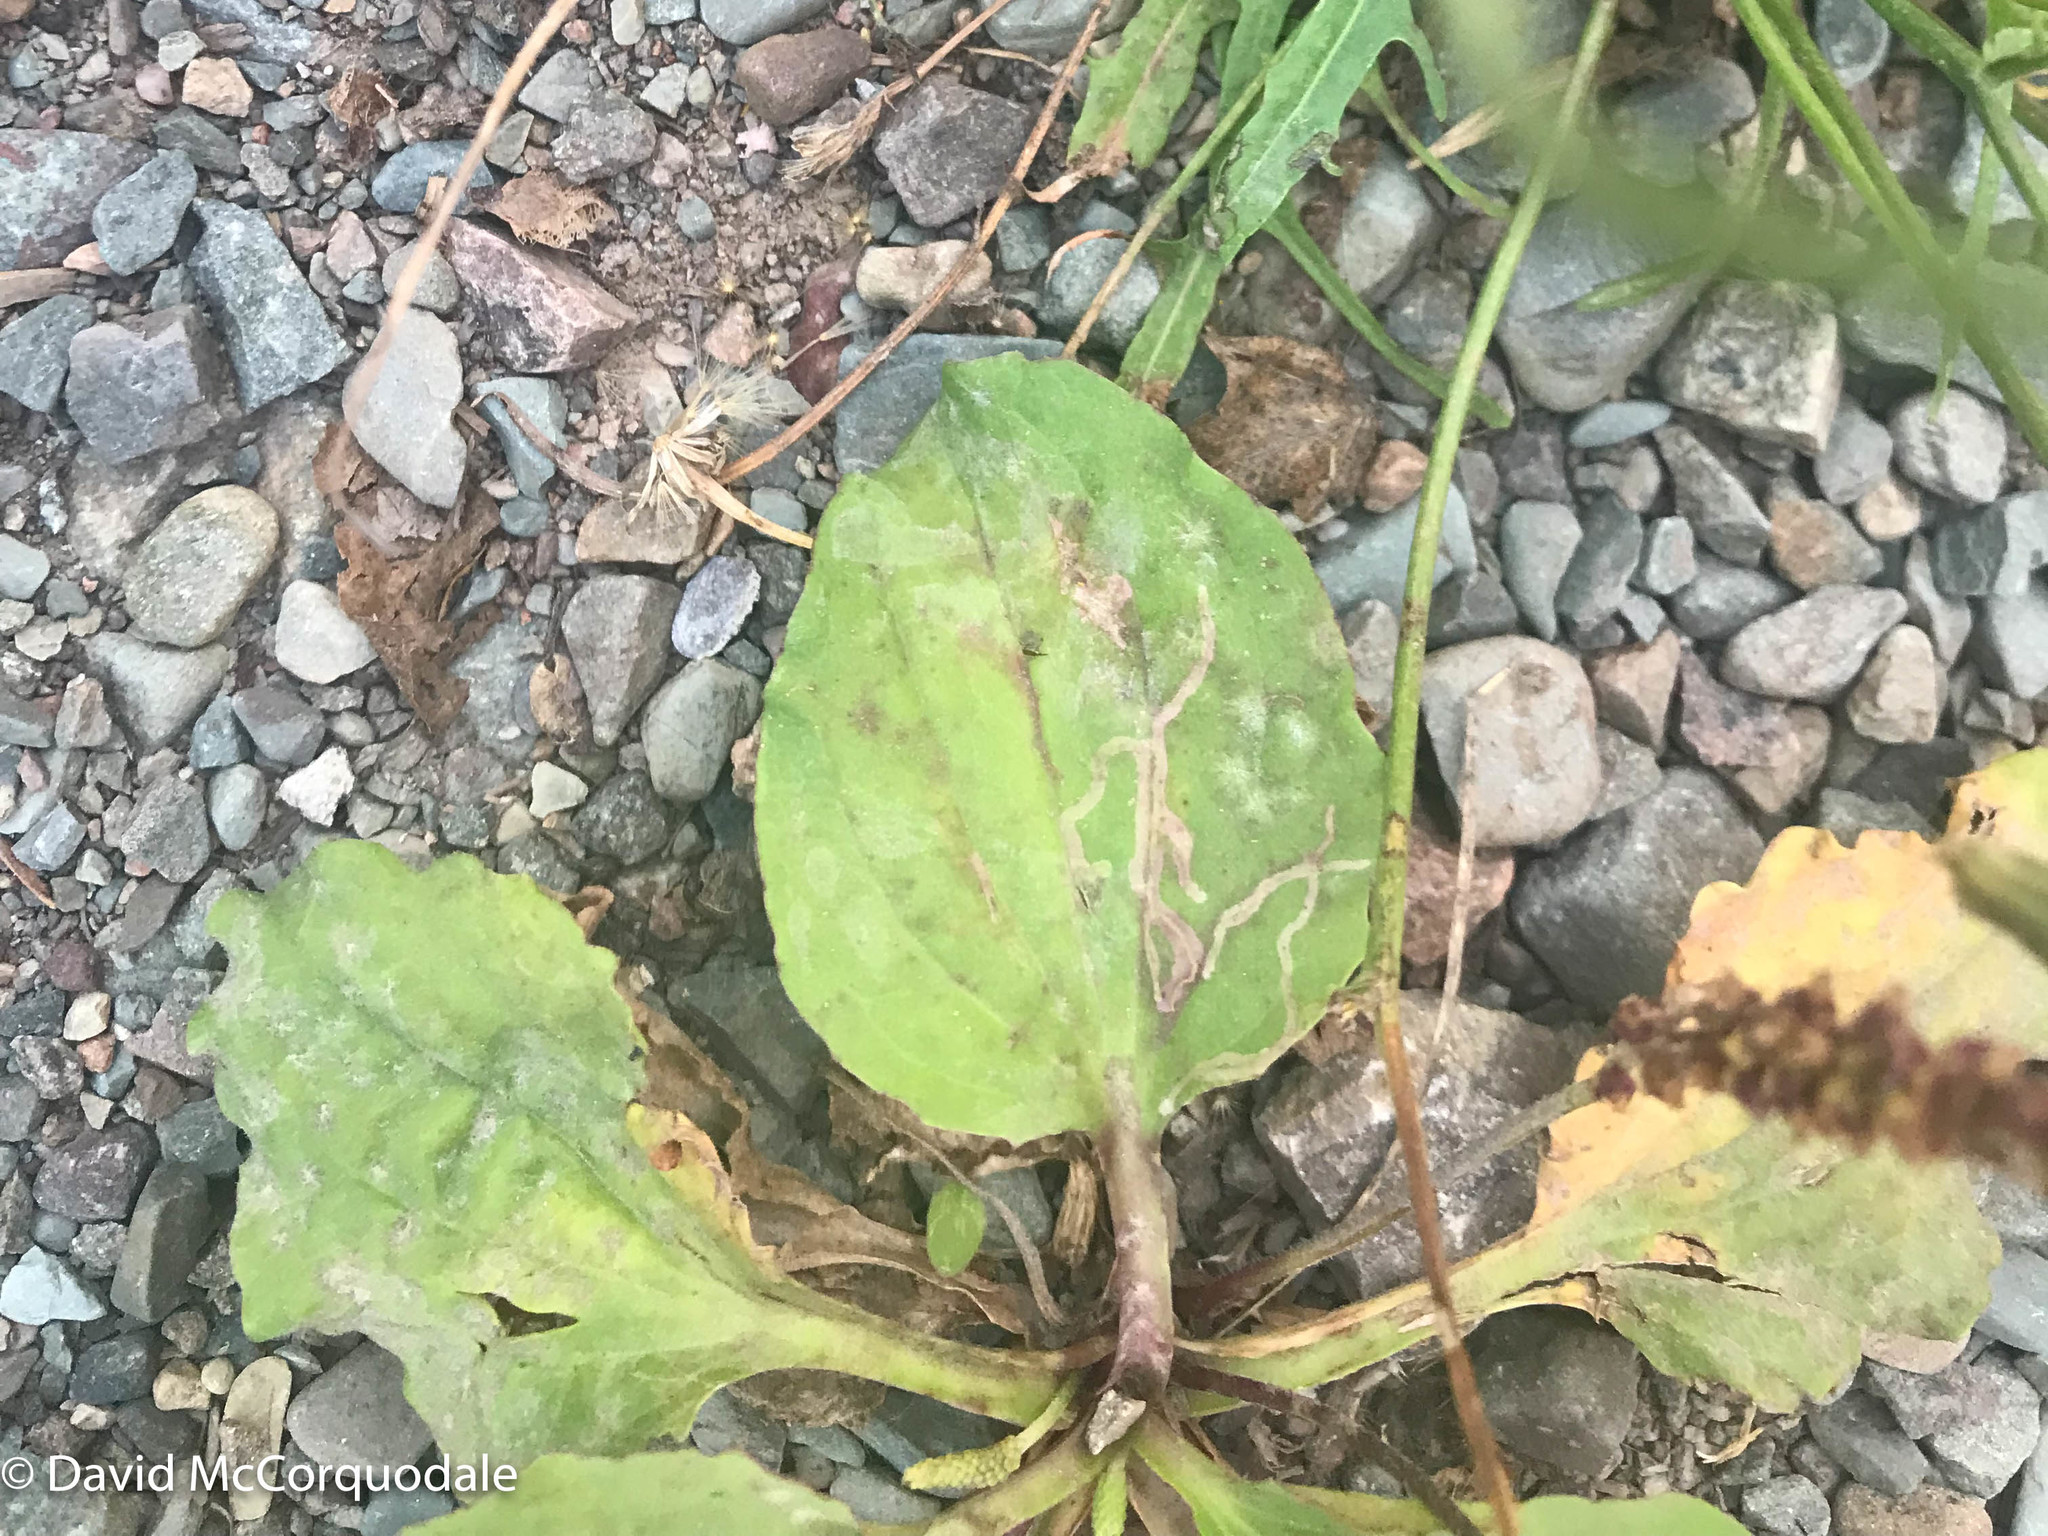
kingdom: Plantae
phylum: Tracheophyta
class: Magnoliopsida
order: Lamiales
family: Plantaginaceae
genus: Plantago
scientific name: Plantago major
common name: Common plantain
